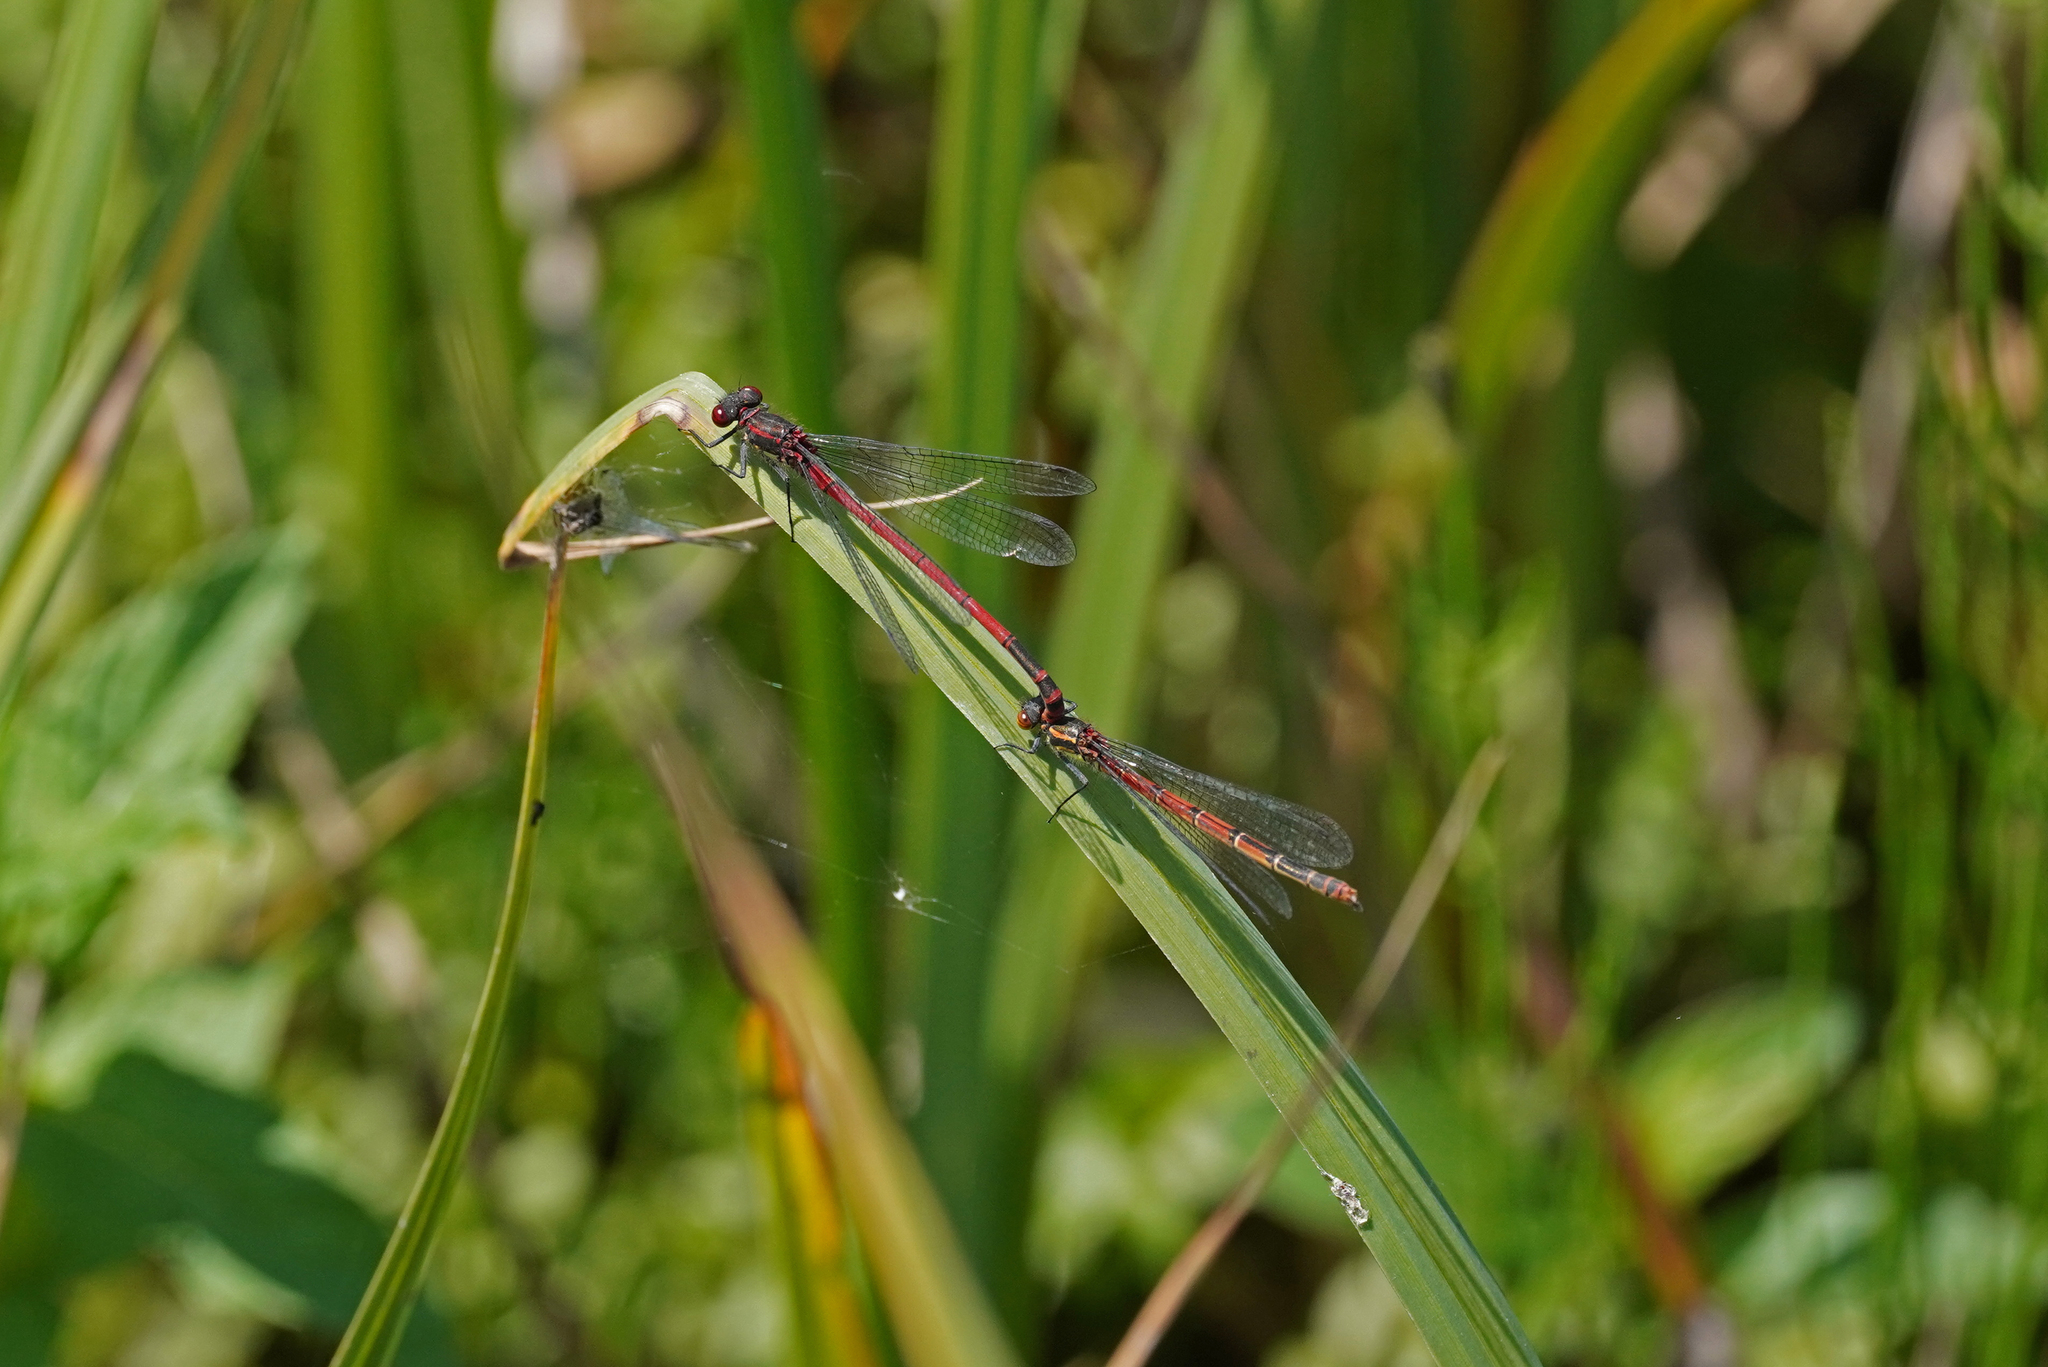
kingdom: Animalia
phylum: Arthropoda
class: Insecta
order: Odonata
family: Coenagrionidae
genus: Pyrrhosoma
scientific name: Pyrrhosoma nymphula
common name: Large red damsel
